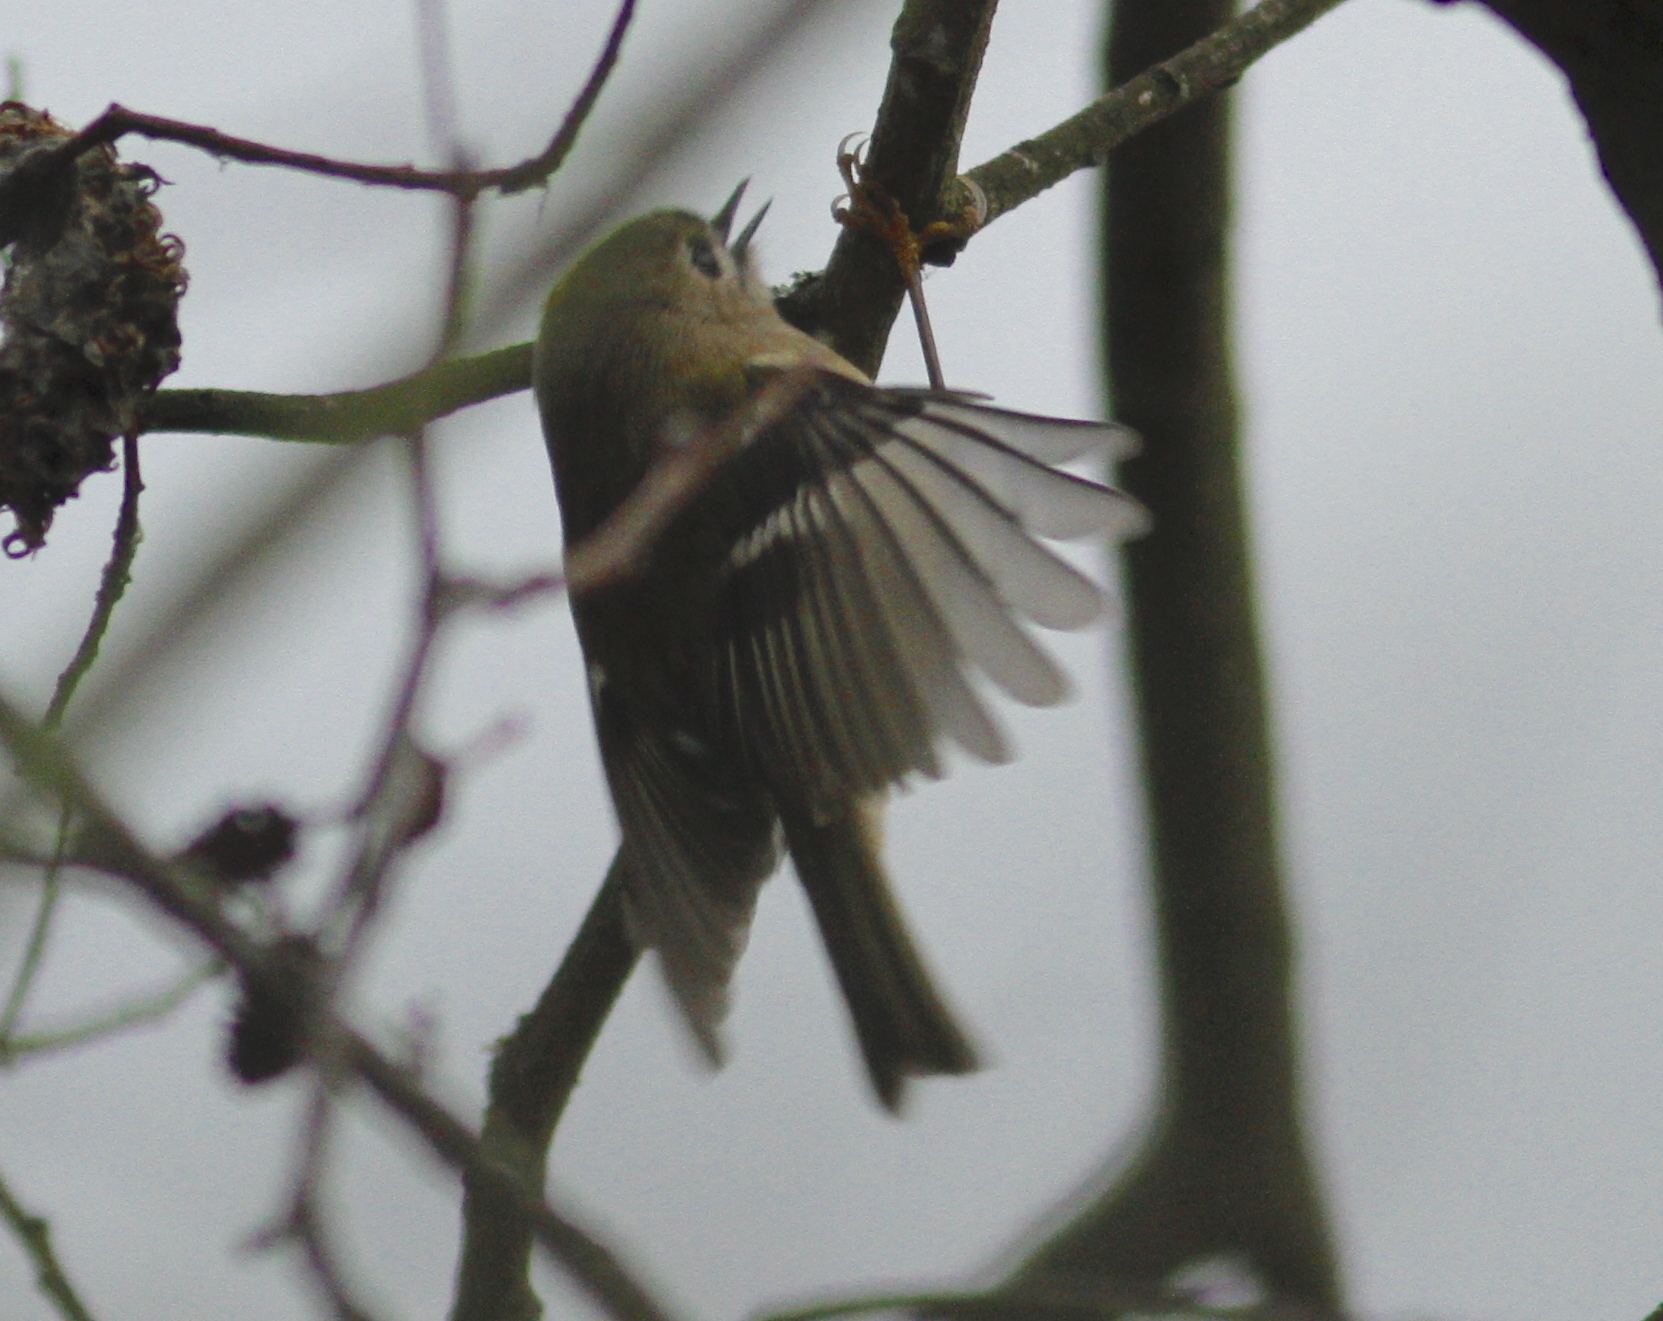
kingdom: Animalia
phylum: Chordata
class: Aves
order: Passeriformes
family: Regulidae
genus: Regulus
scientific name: Regulus regulus
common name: Goldcrest
